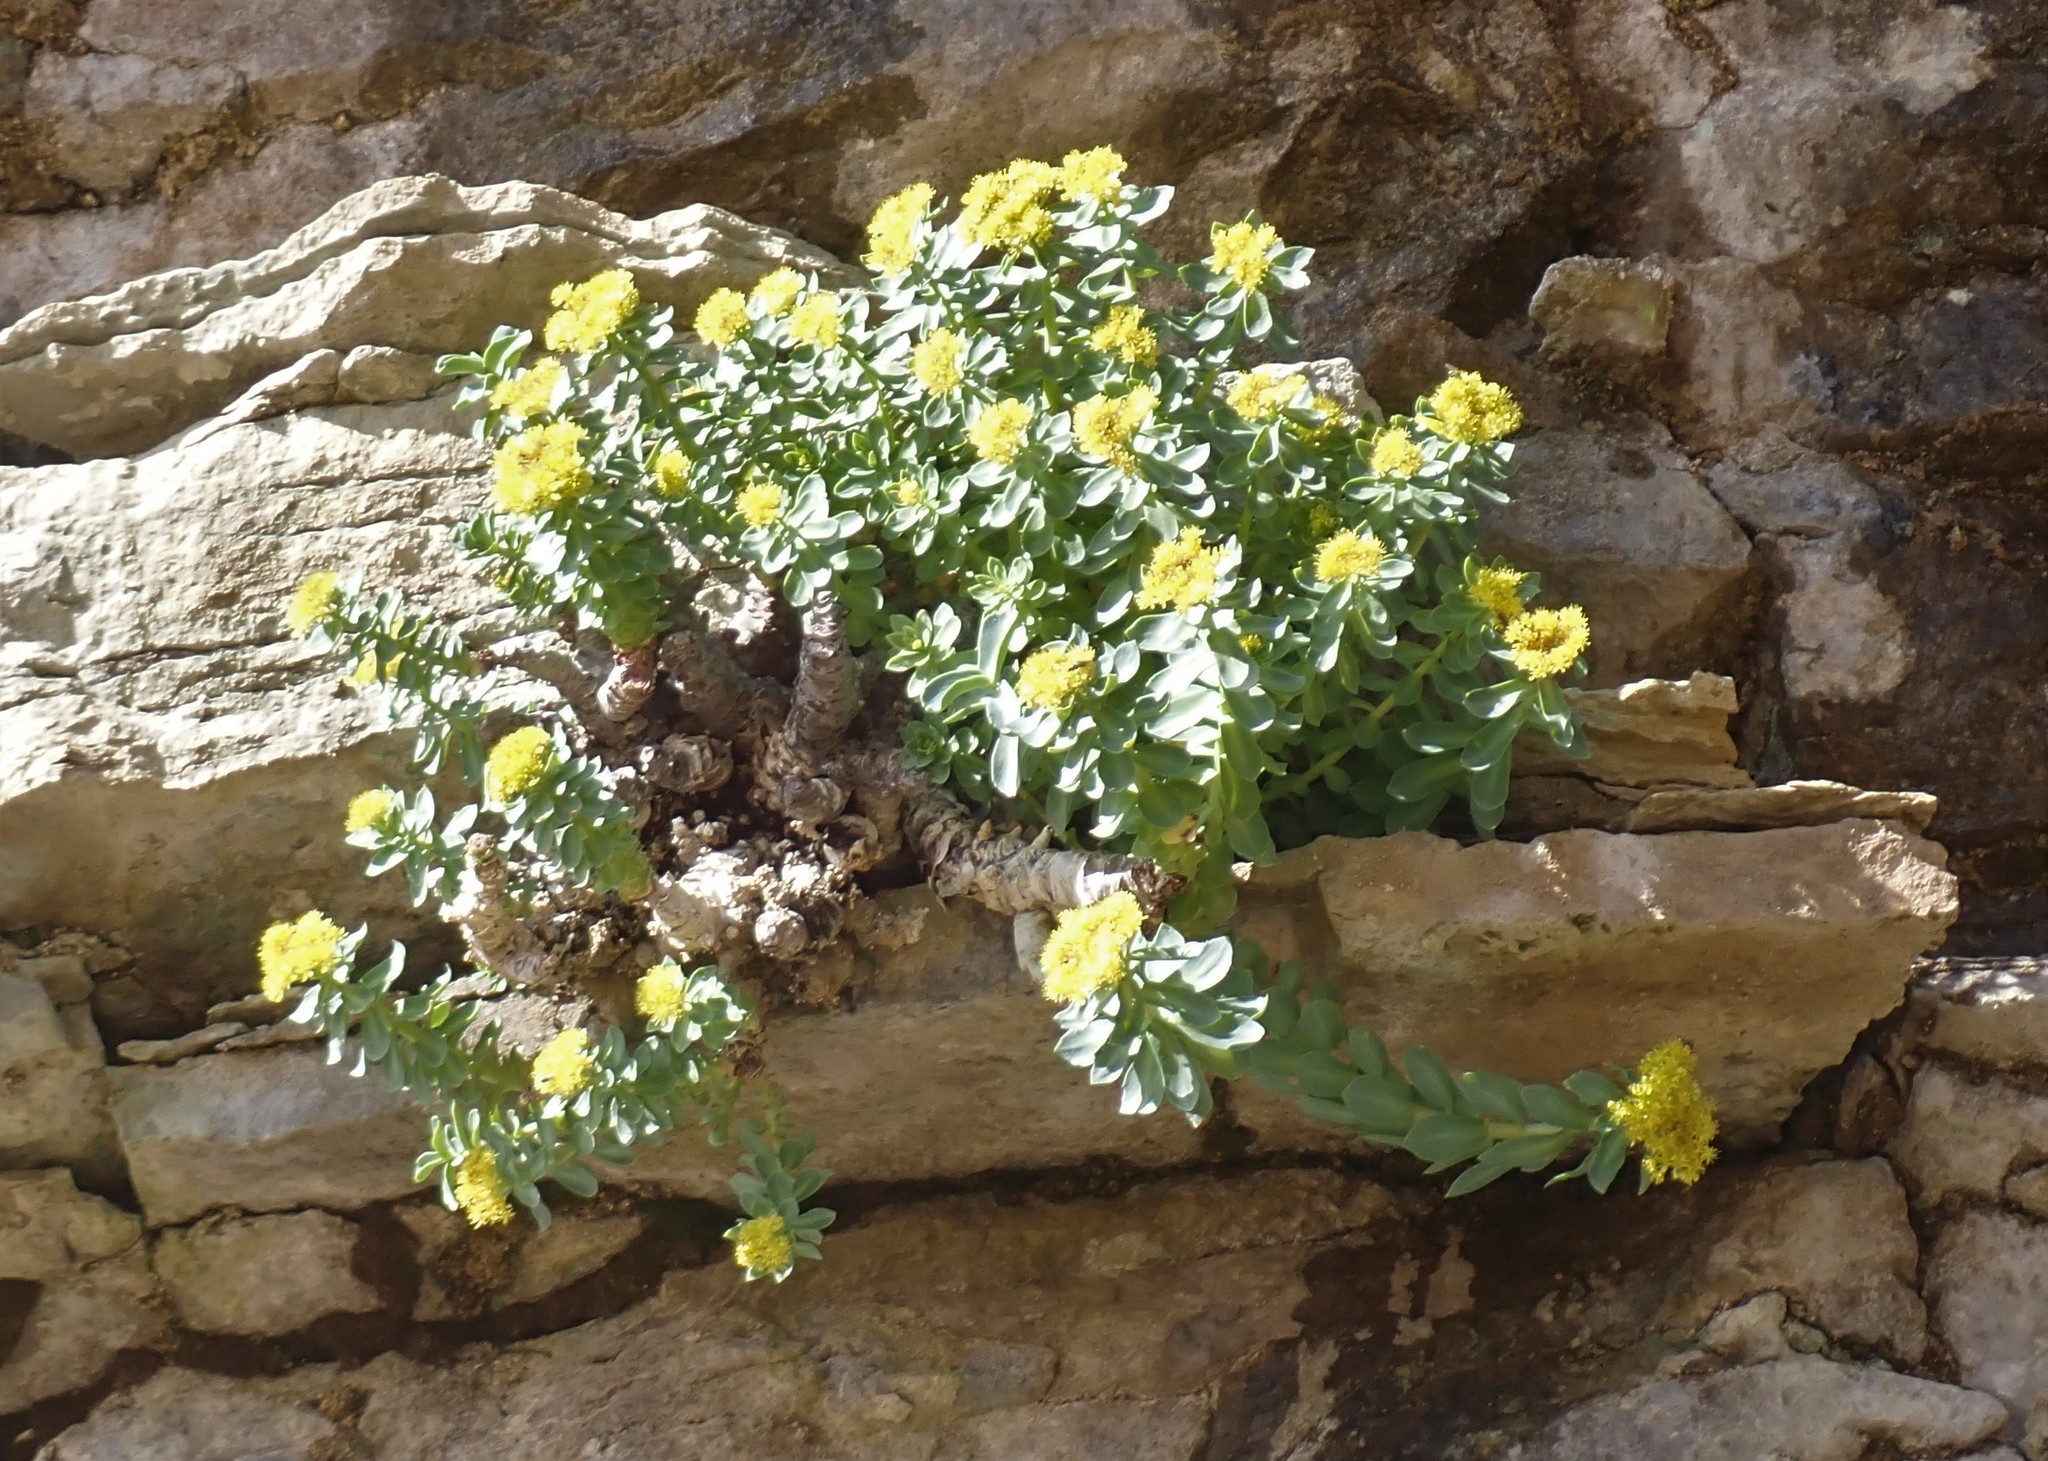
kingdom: Plantae
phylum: Tracheophyta
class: Magnoliopsida
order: Saxifragales
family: Crassulaceae
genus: Rhodiola
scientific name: Rhodiola rosea
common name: Roseroot
